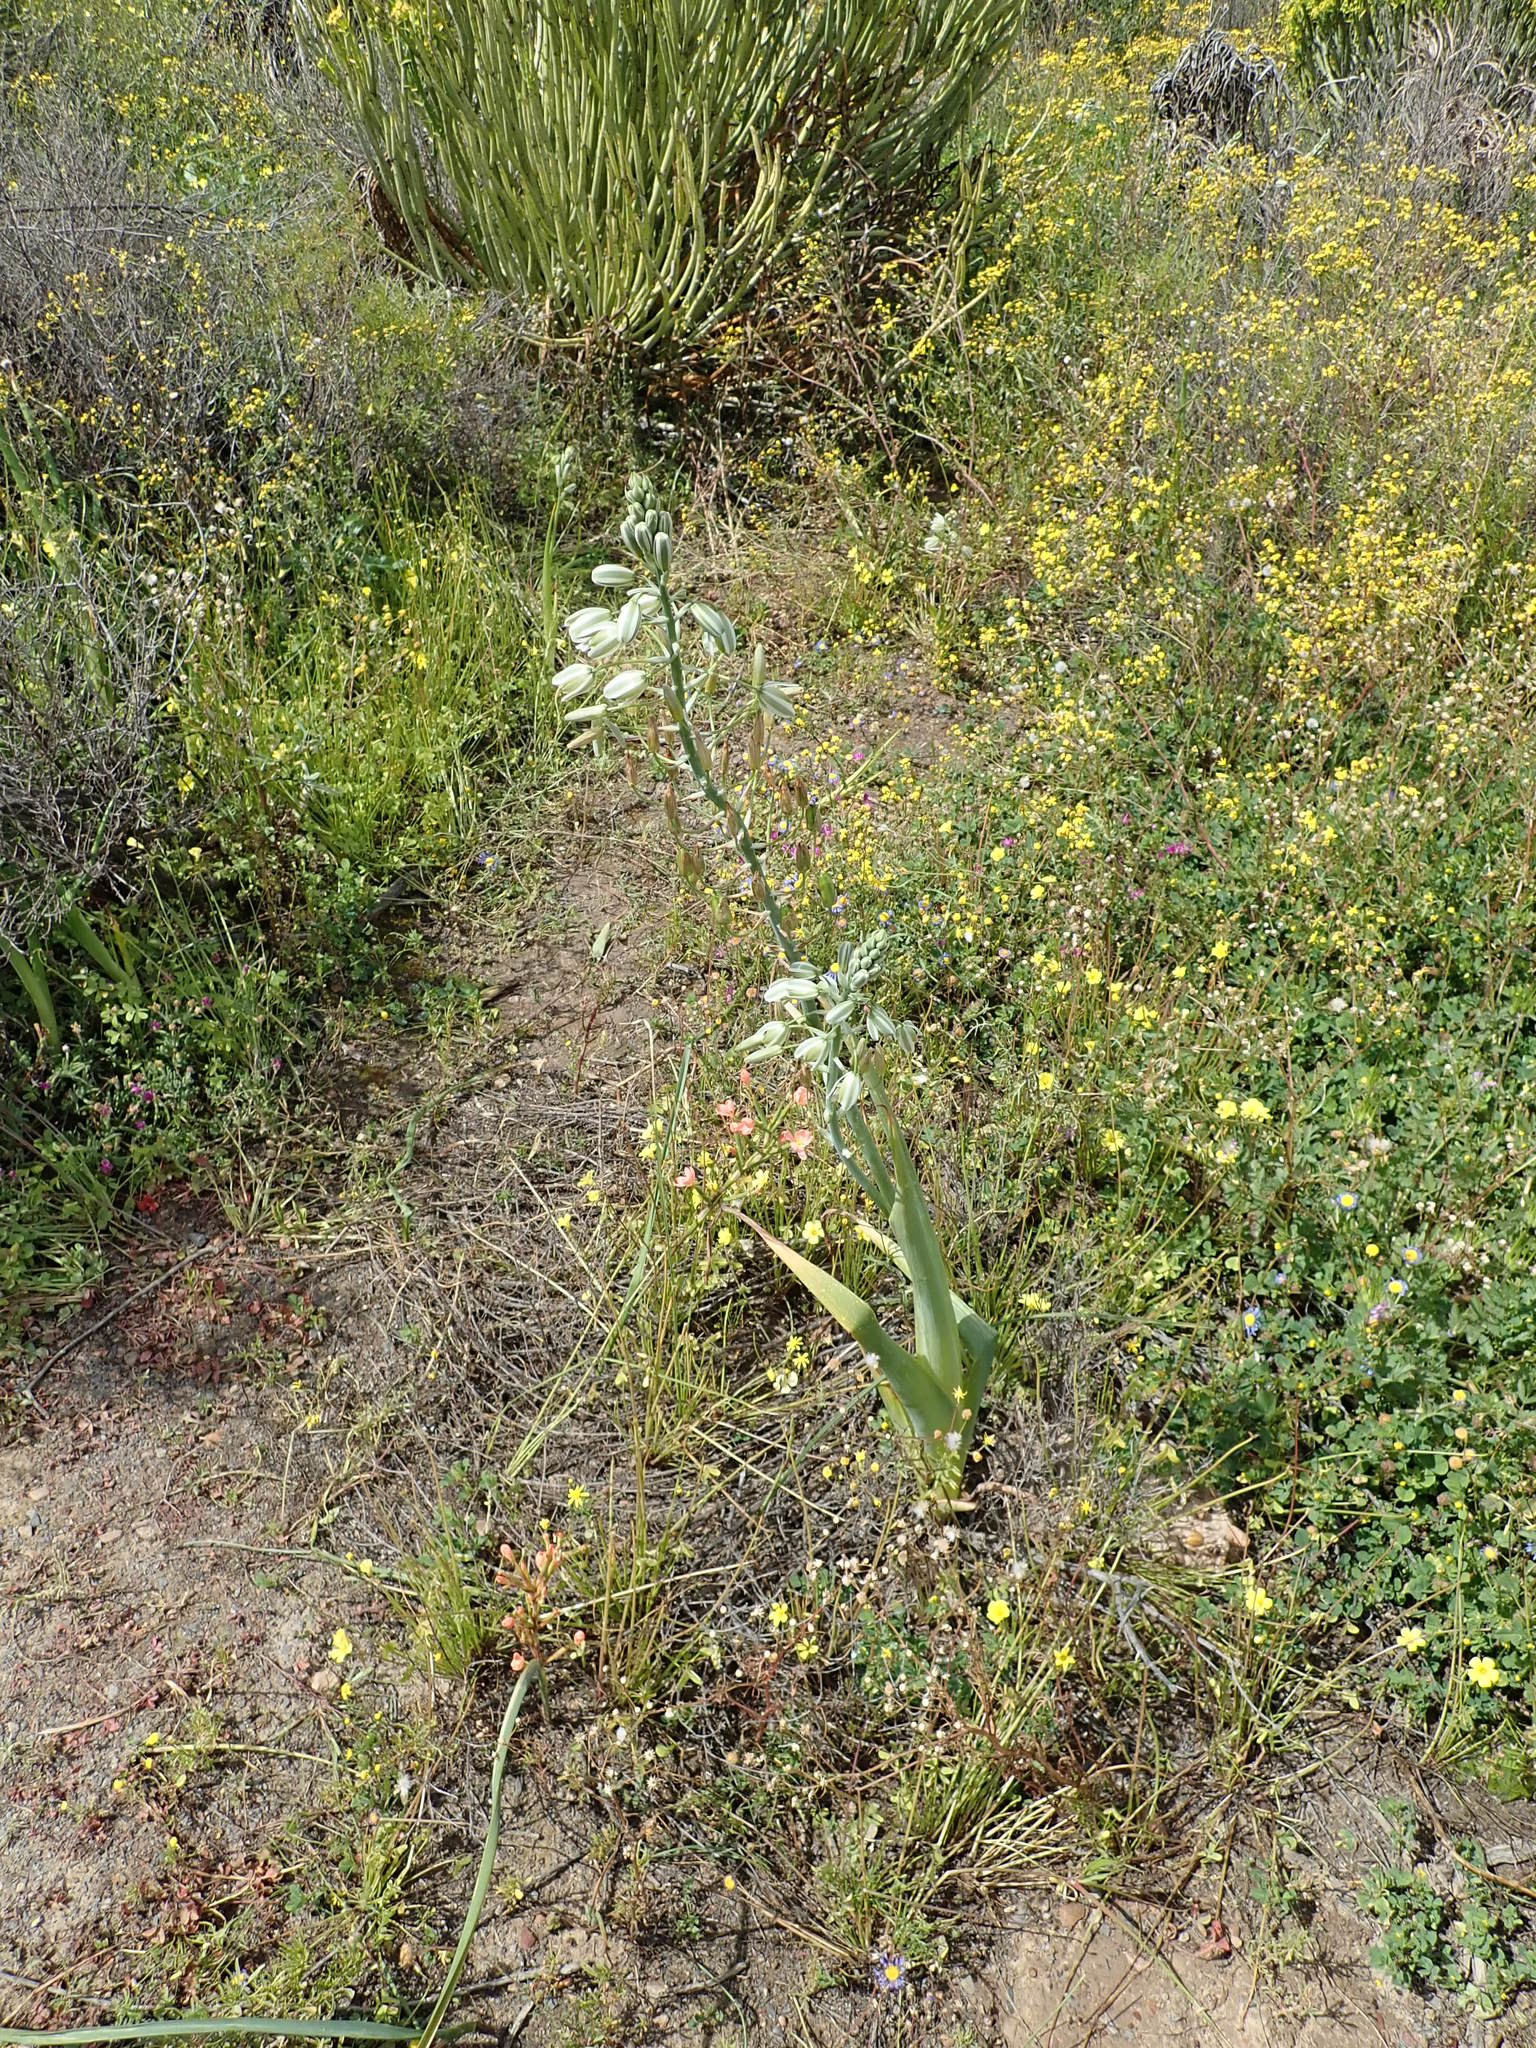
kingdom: Plantae
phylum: Tracheophyta
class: Liliopsida
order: Asparagales
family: Asparagaceae
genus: Albuca
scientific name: Albuca canadensis
